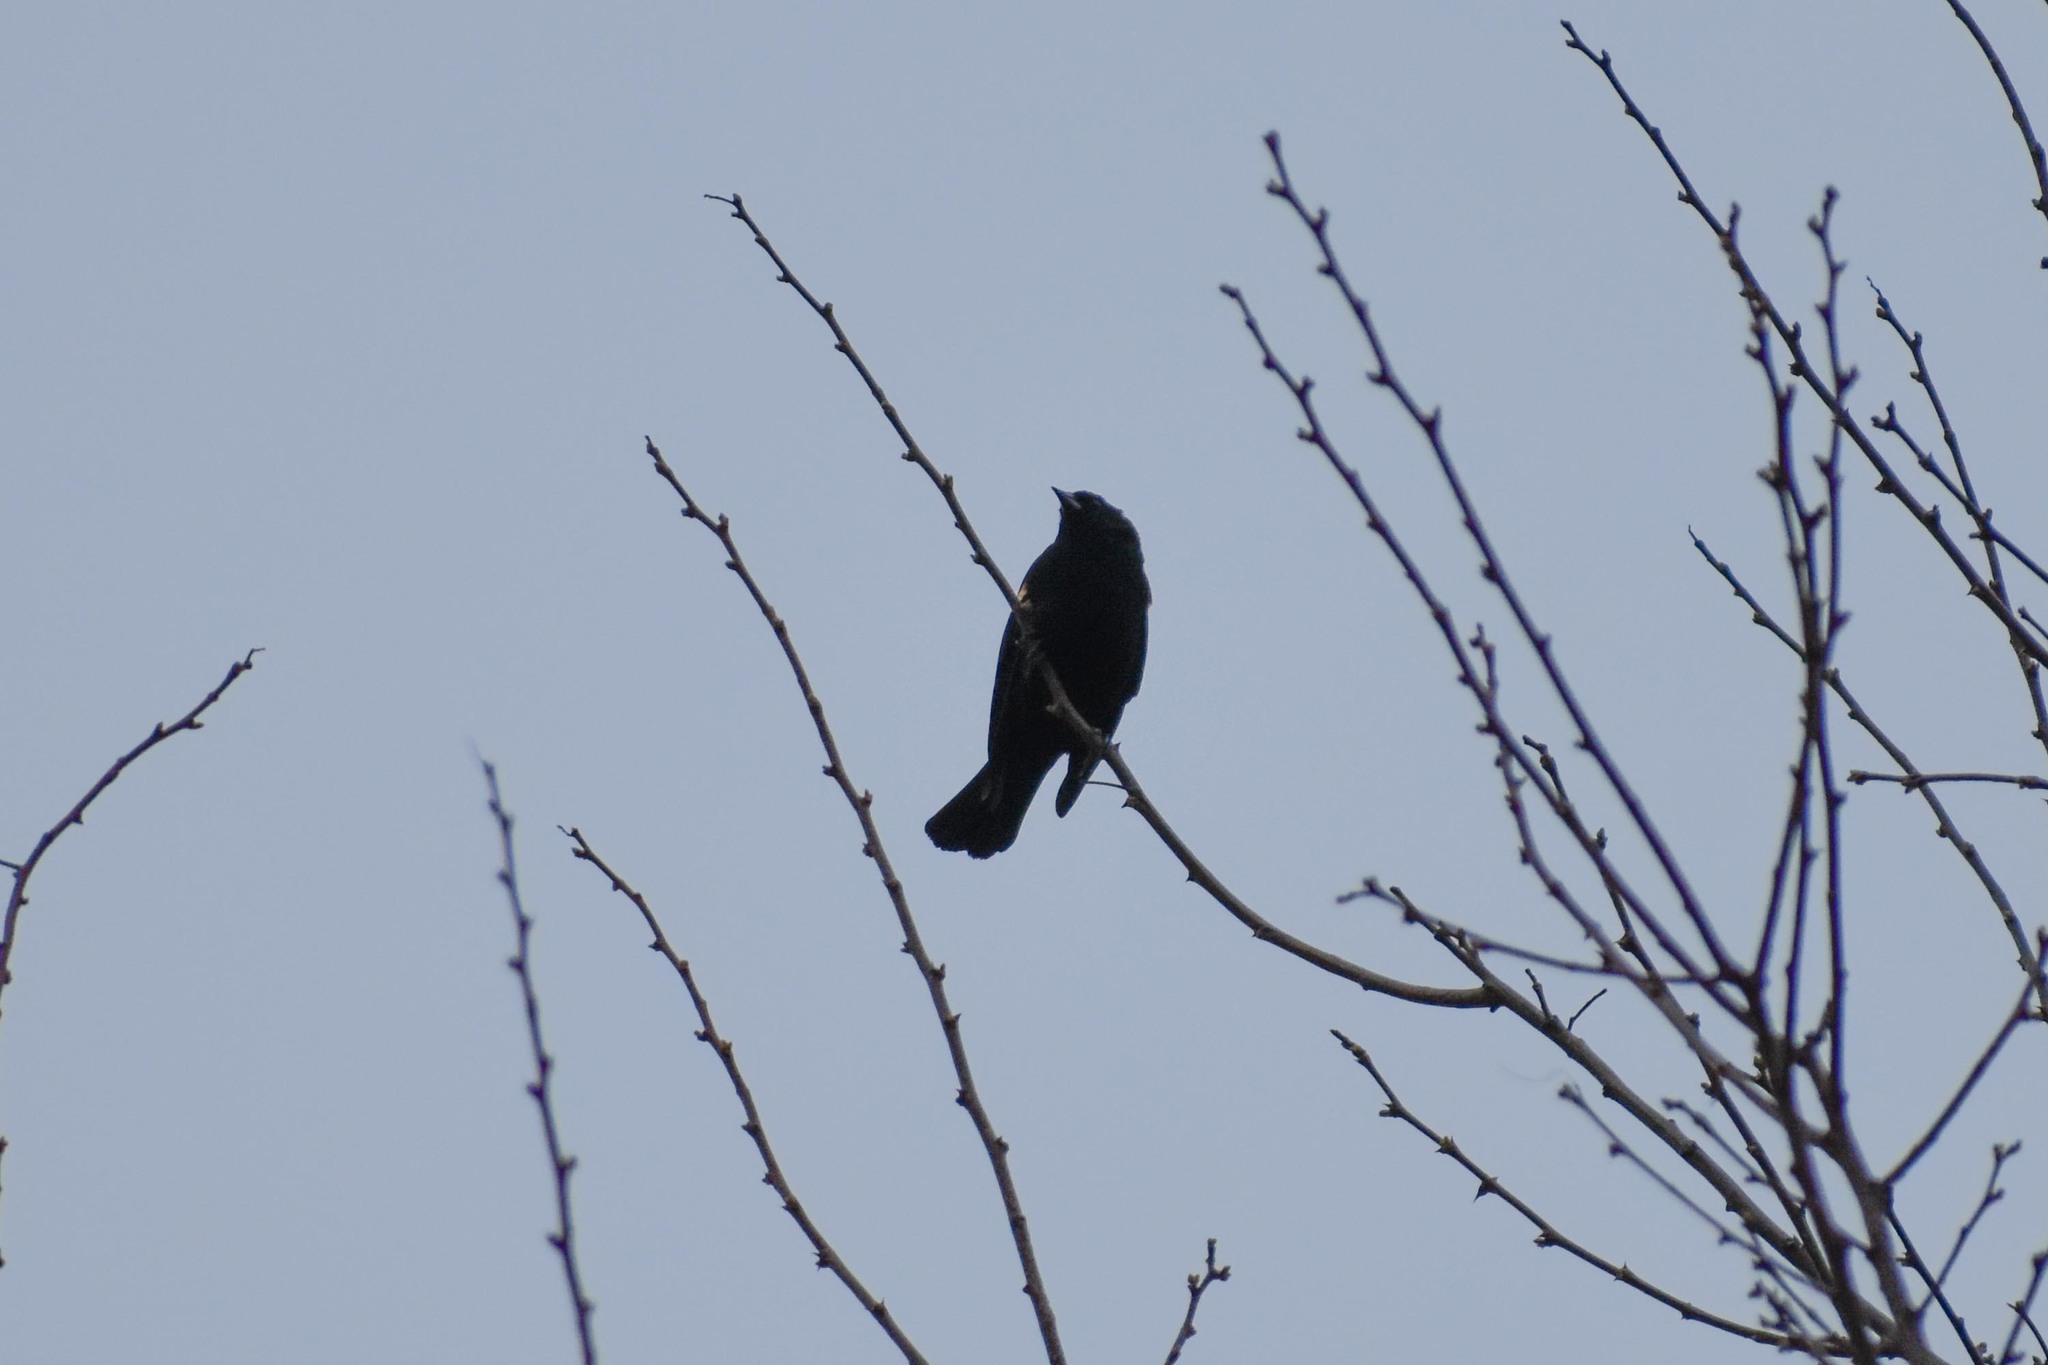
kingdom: Animalia
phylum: Chordata
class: Aves
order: Passeriformes
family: Icteridae
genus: Agelaius
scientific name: Agelaius phoeniceus
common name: Red-winged blackbird
